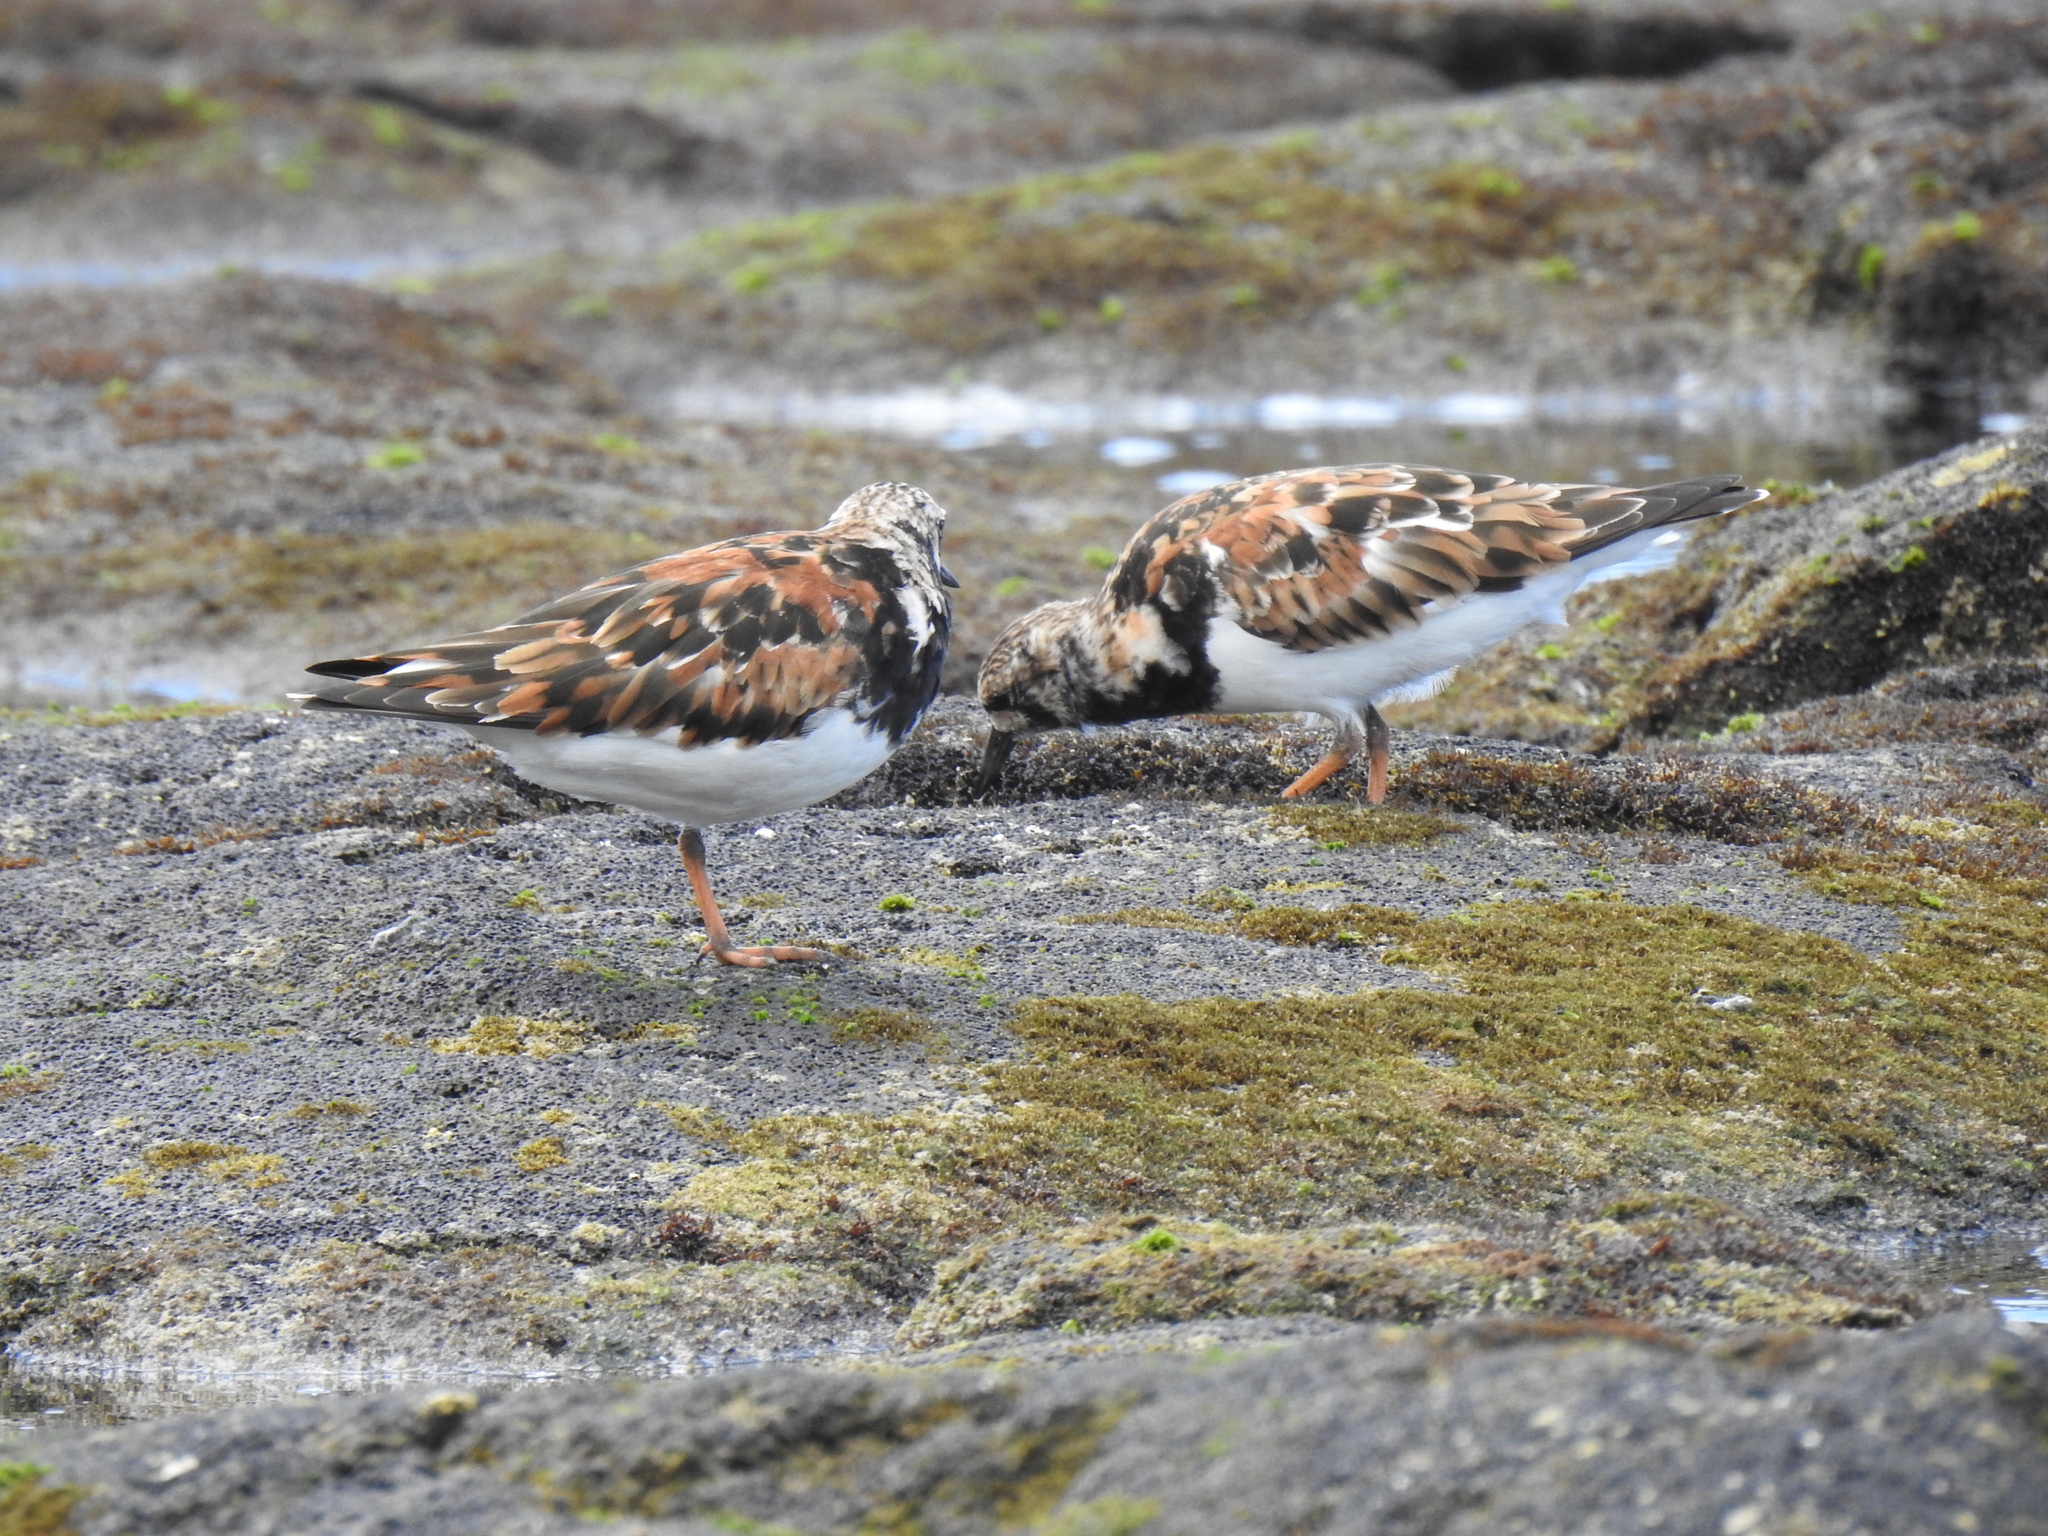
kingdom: Animalia
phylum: Chordata
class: Aves
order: Charadriiformes
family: Scolopacidae
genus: Arenaria
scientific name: Arenaria interpres
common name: Ruddy turnstone
